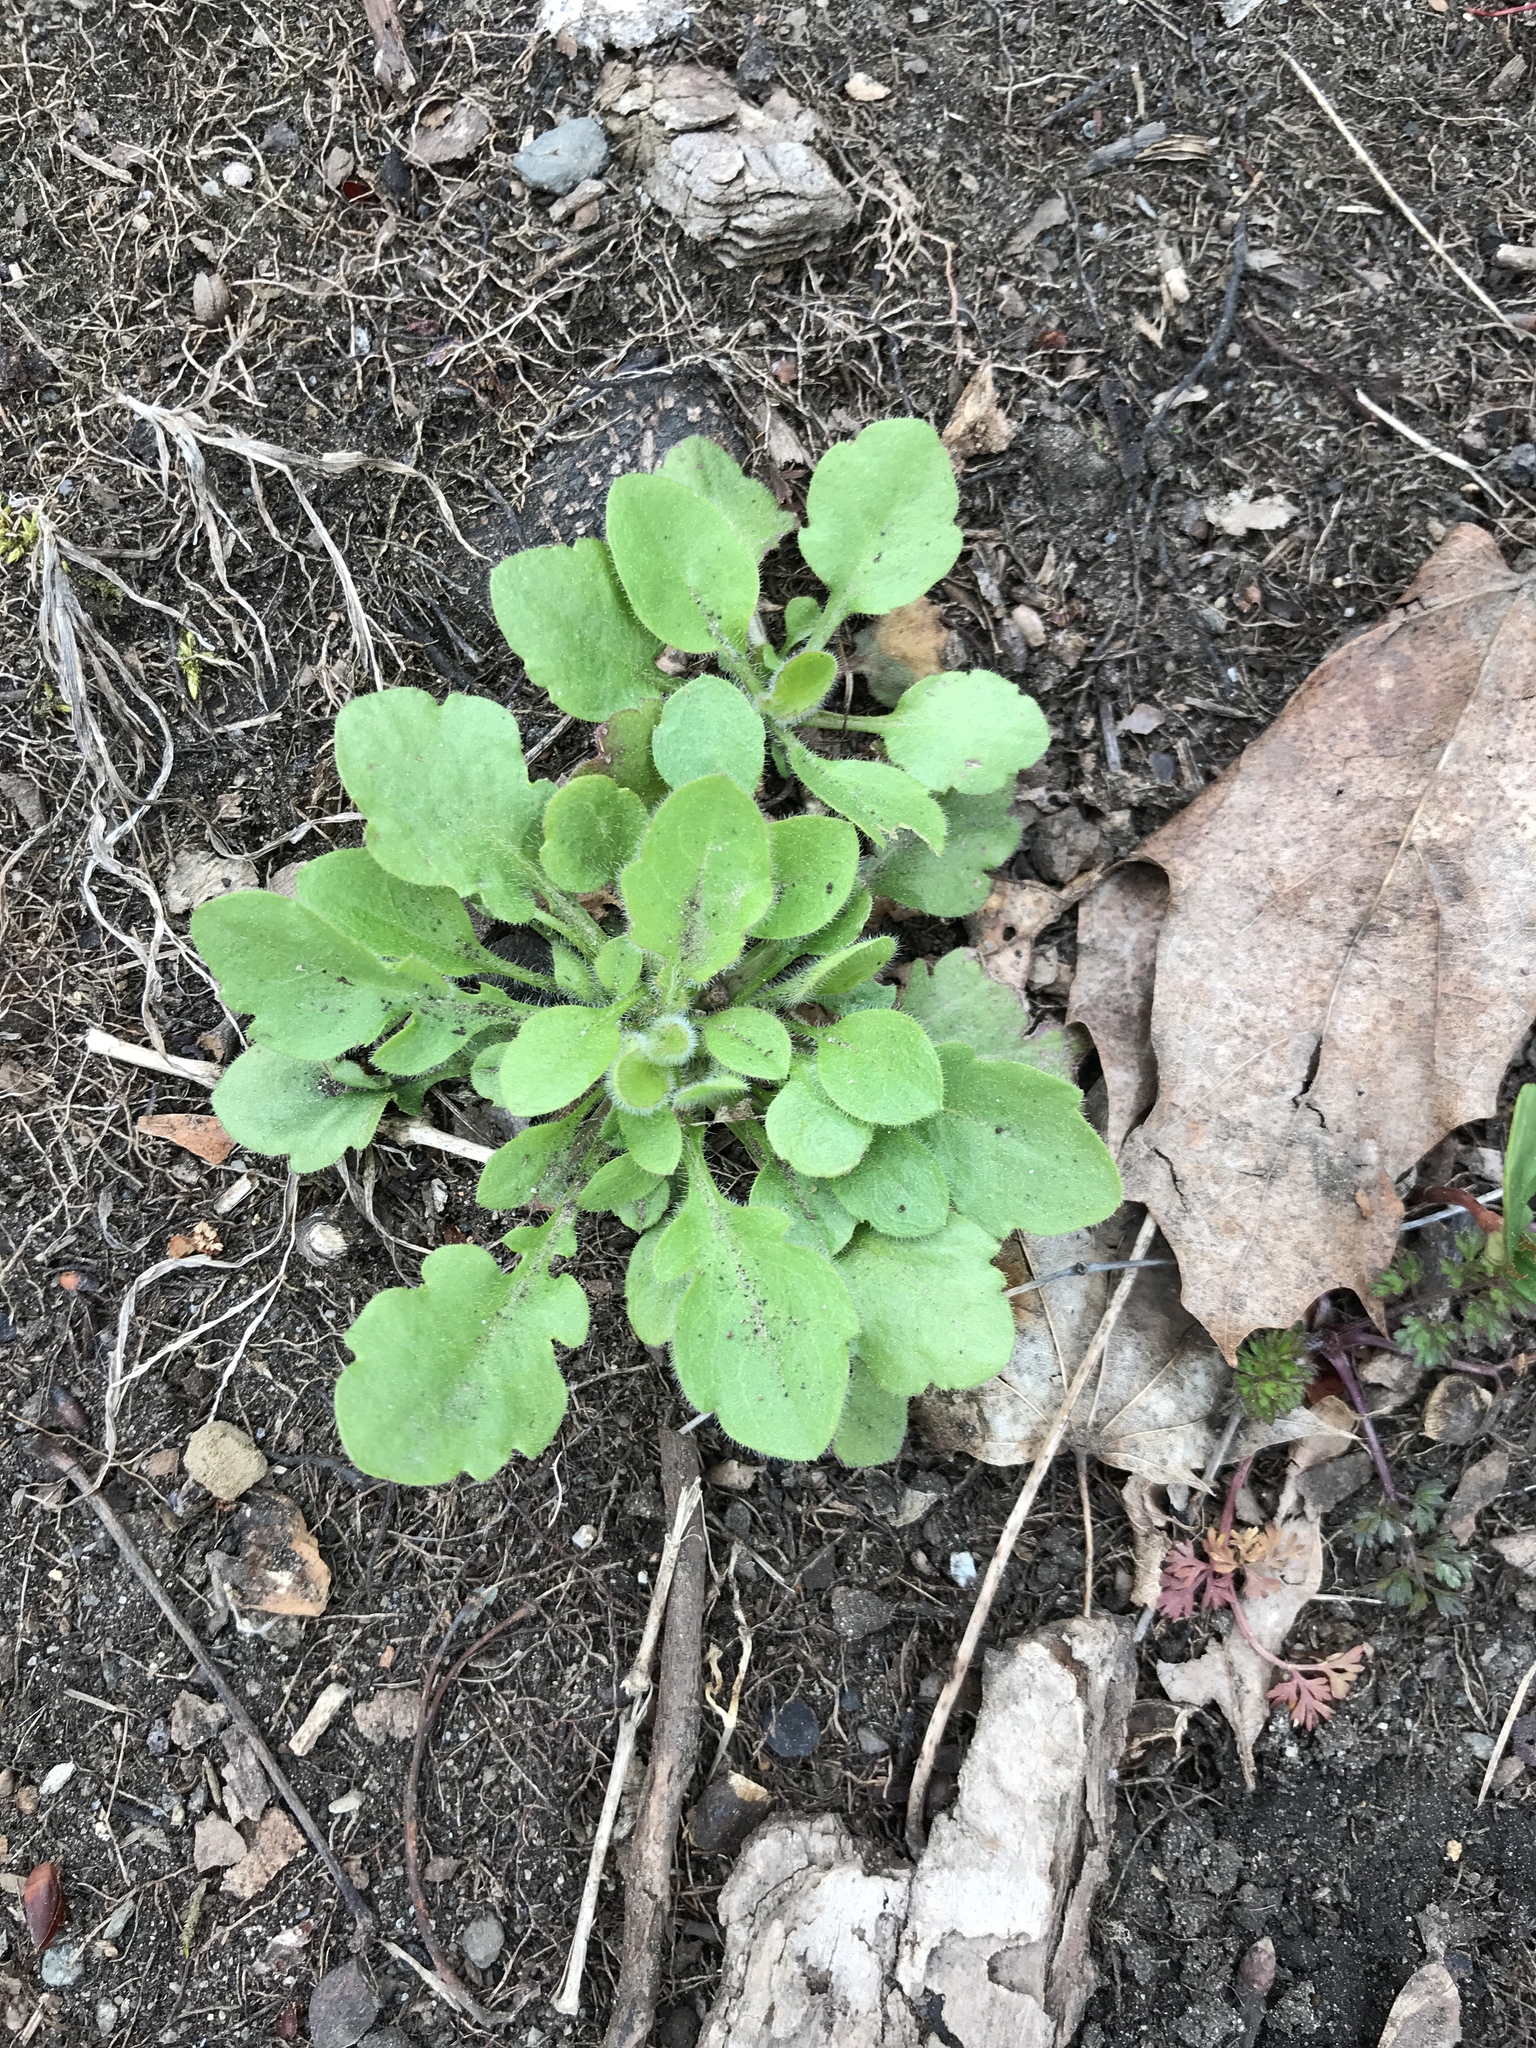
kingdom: Plantae
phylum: Tracheophyta
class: Magnoliopsida
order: Asterales
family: Asteraceae
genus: Erigeron
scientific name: Erigeron canadensis
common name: Canadian fleabane
